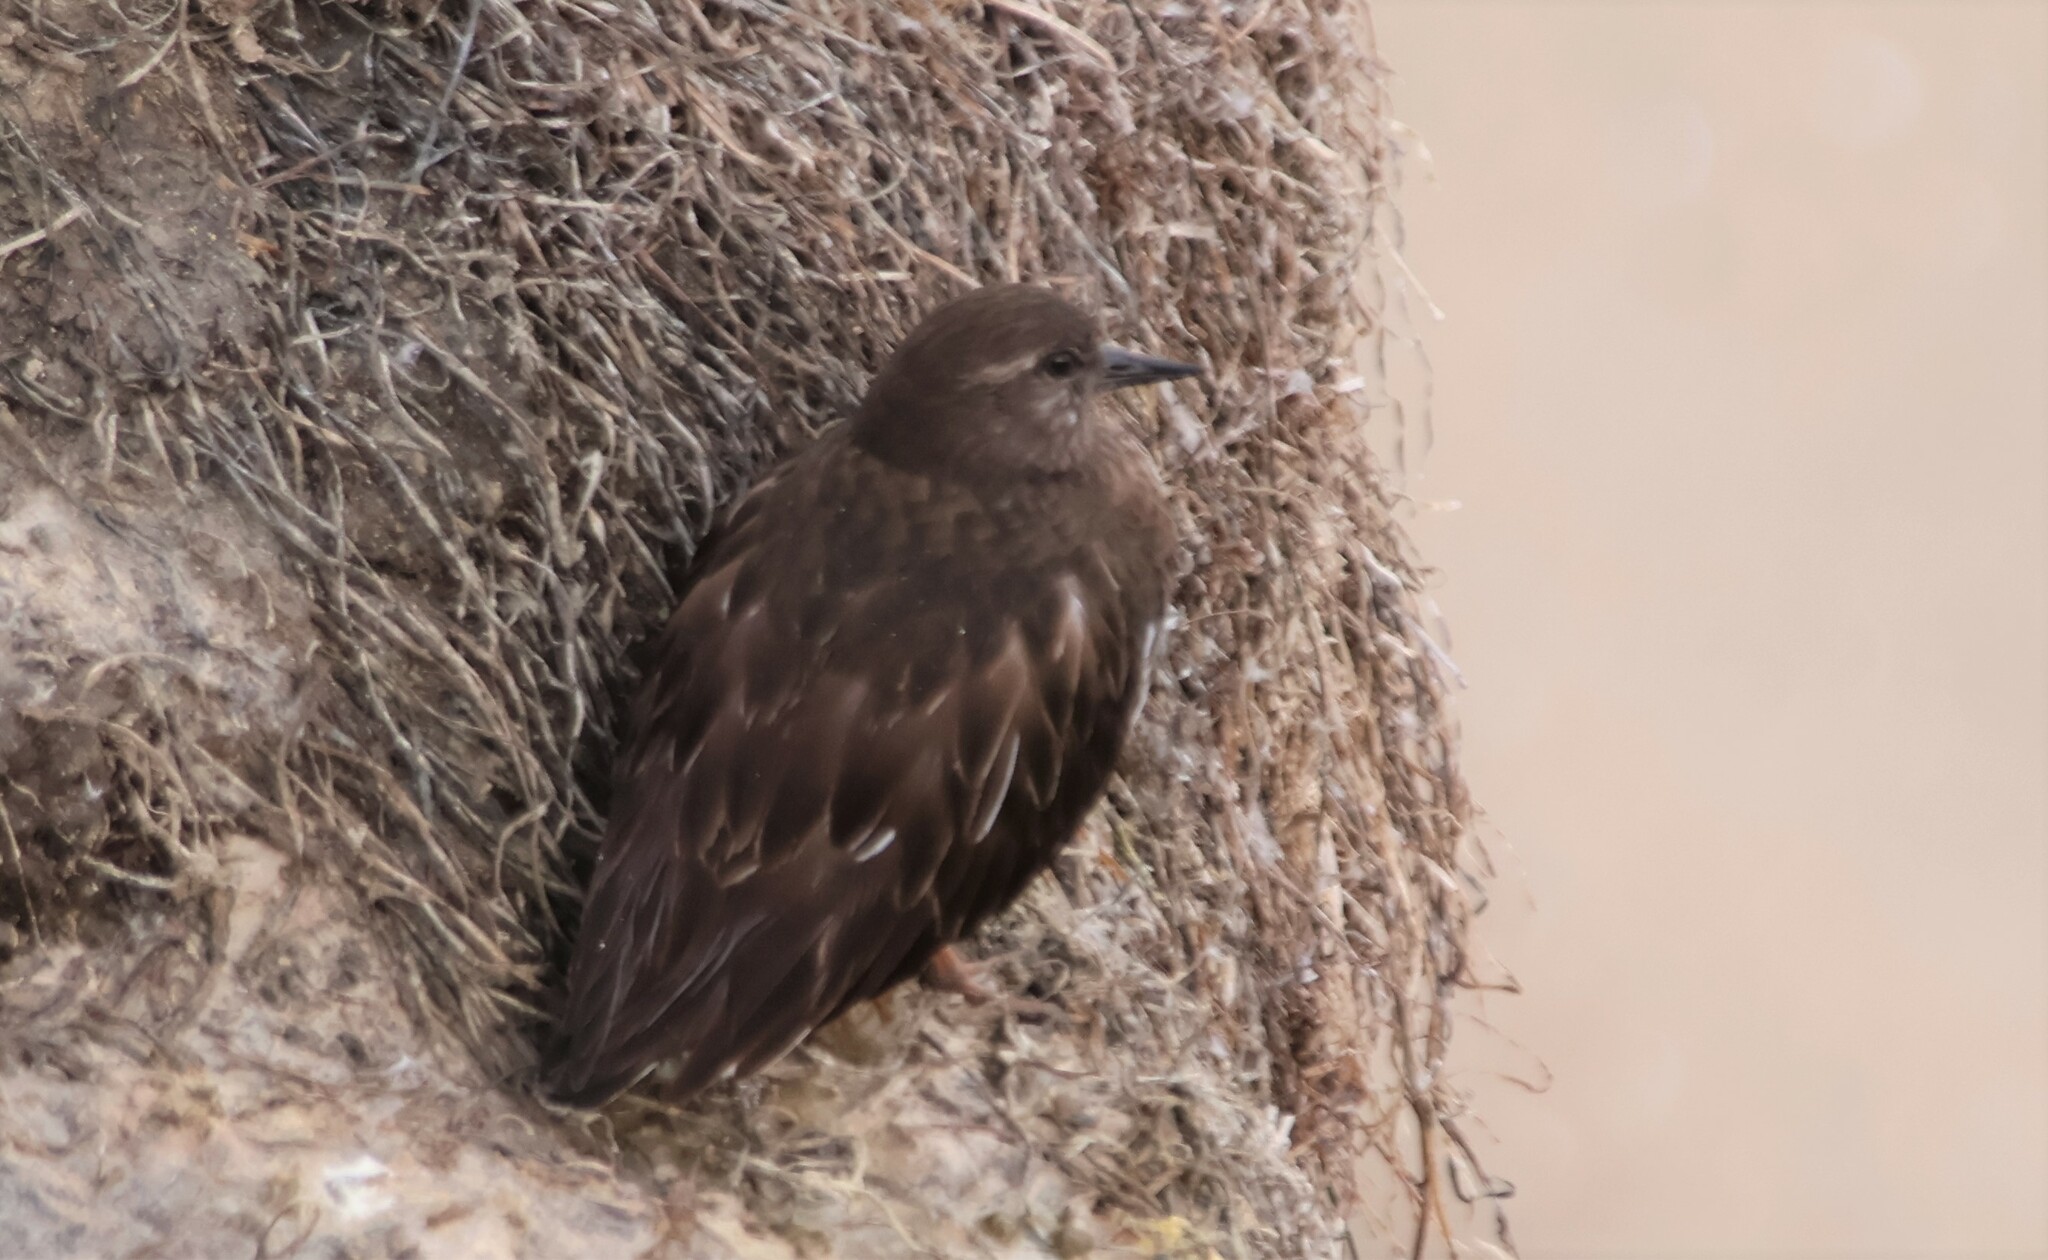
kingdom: Animalia
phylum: Chordata
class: Aves
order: Charadriiformes
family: Scolopacidae
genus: Arenaria
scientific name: Arenaria melanocephala
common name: Black turnstone
